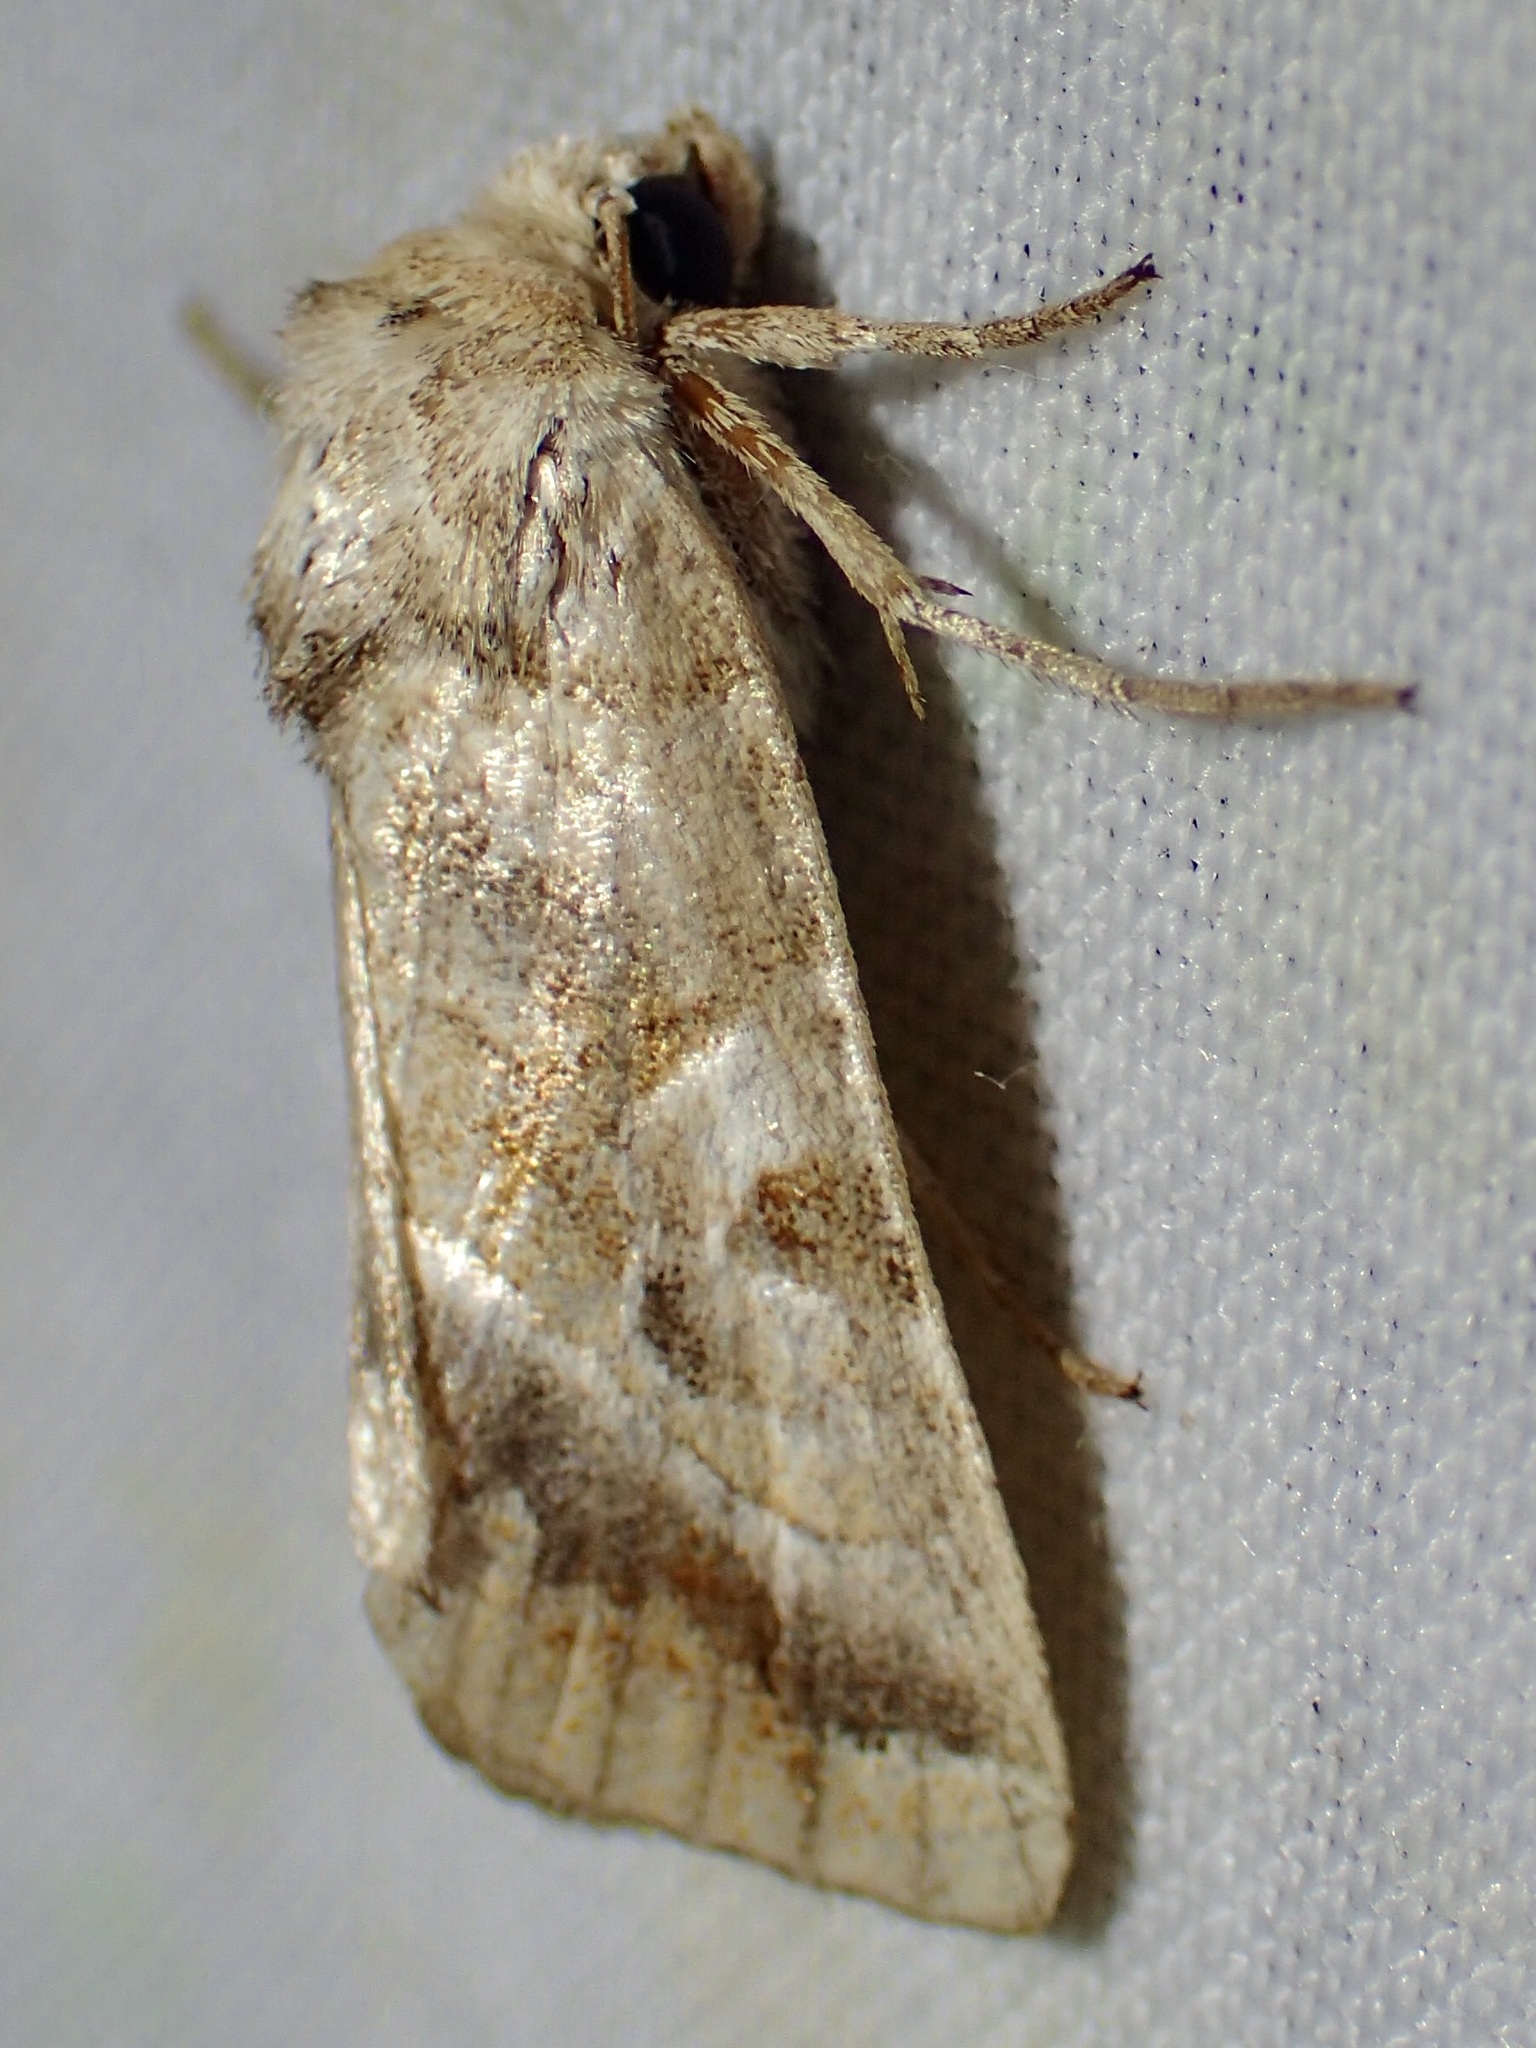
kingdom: Animalia
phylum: Arthropoda
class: Insecta
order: Lepidoptera
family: Noctuidae
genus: Hexorthodes
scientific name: Hexorthodes accurata
